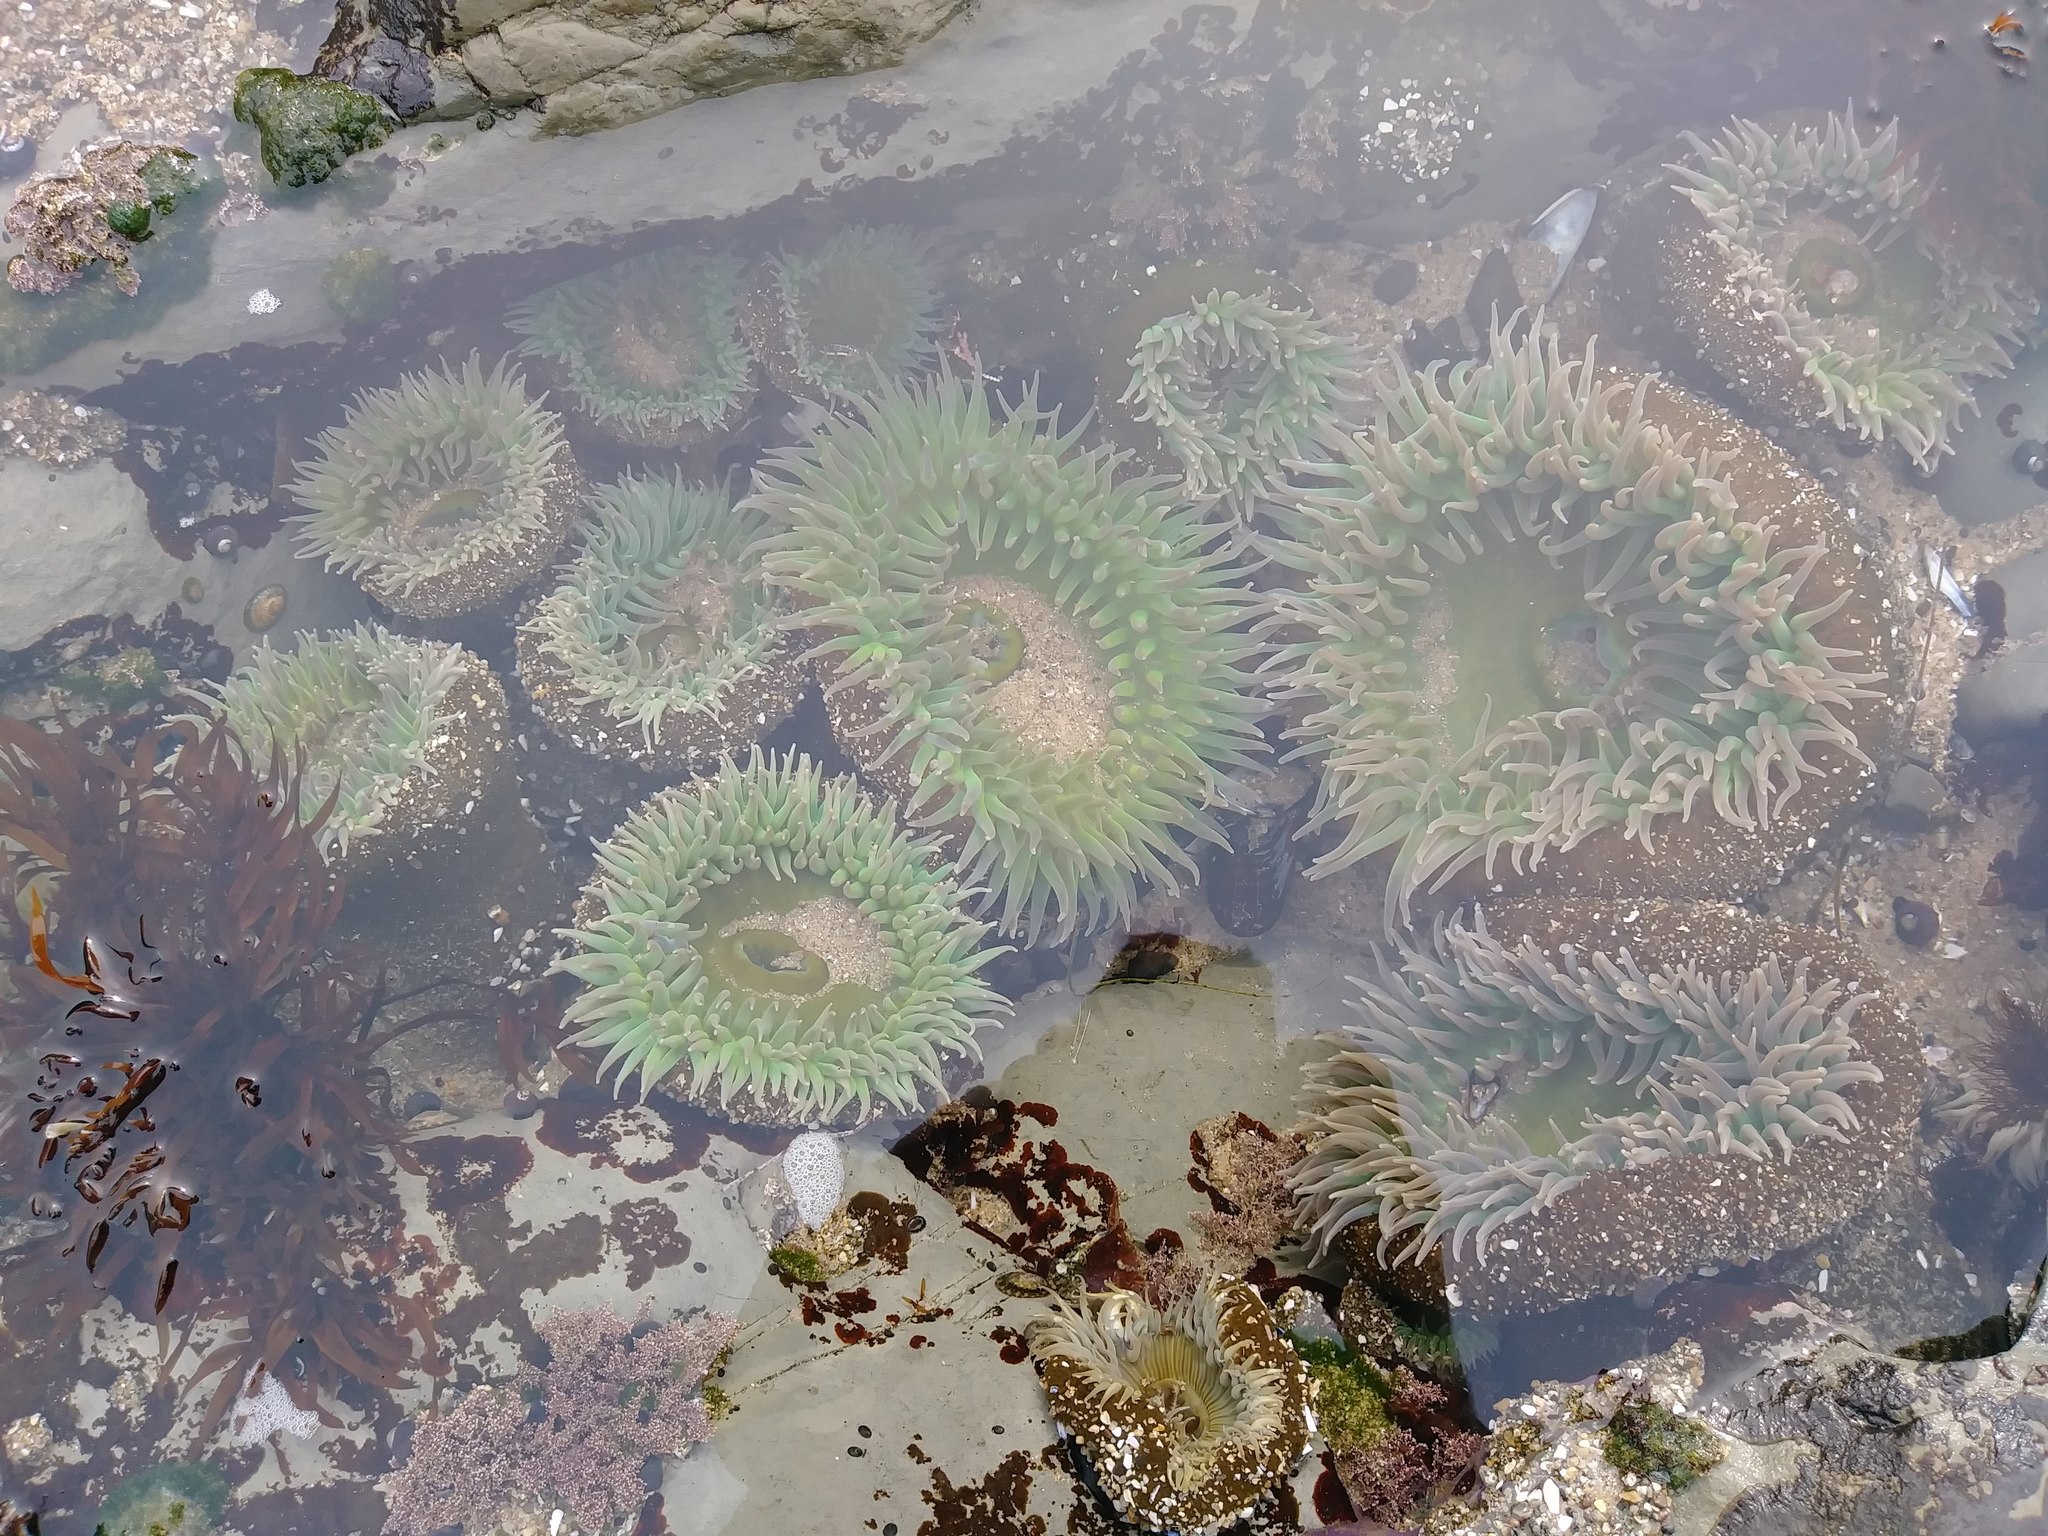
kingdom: Animalia
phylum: Cnidaria
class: Anthozoa
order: Actiniaria
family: Actiniidae
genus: Anthopleura
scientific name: Anthopleura xanthogrammica
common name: Giant green anemone
